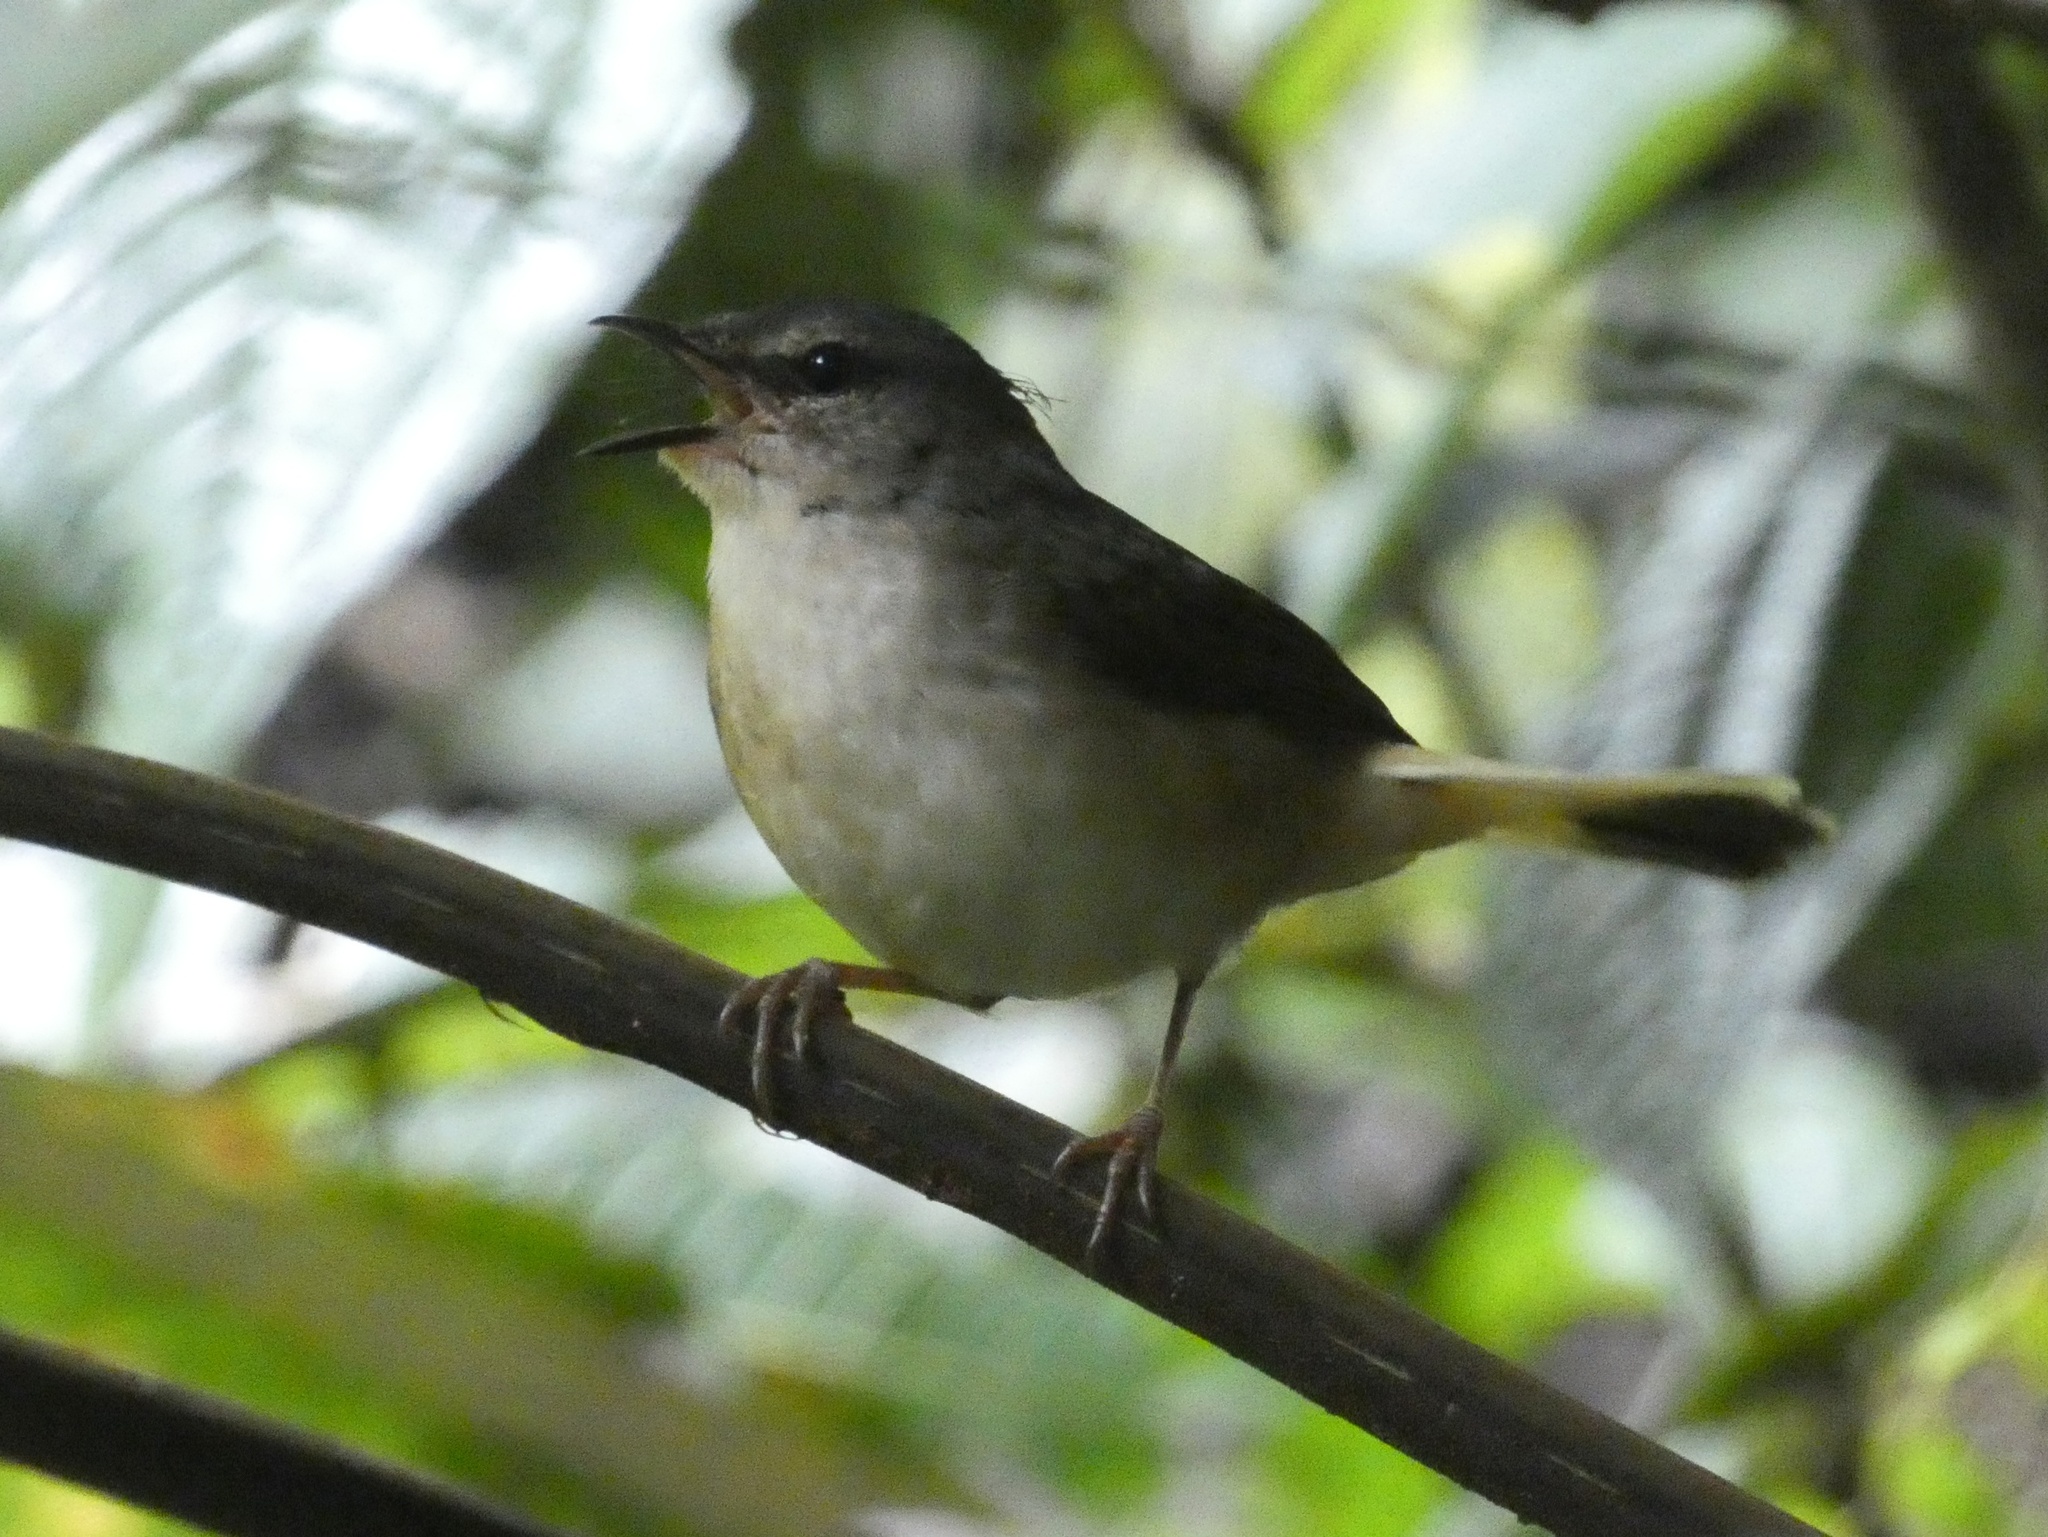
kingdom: Animalia
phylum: Chordata
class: Aves
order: Passeriformes
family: Parulidae
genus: Myiothlypis
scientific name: Myiothlypis fulvicauda
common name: Buff-rumped warbler
